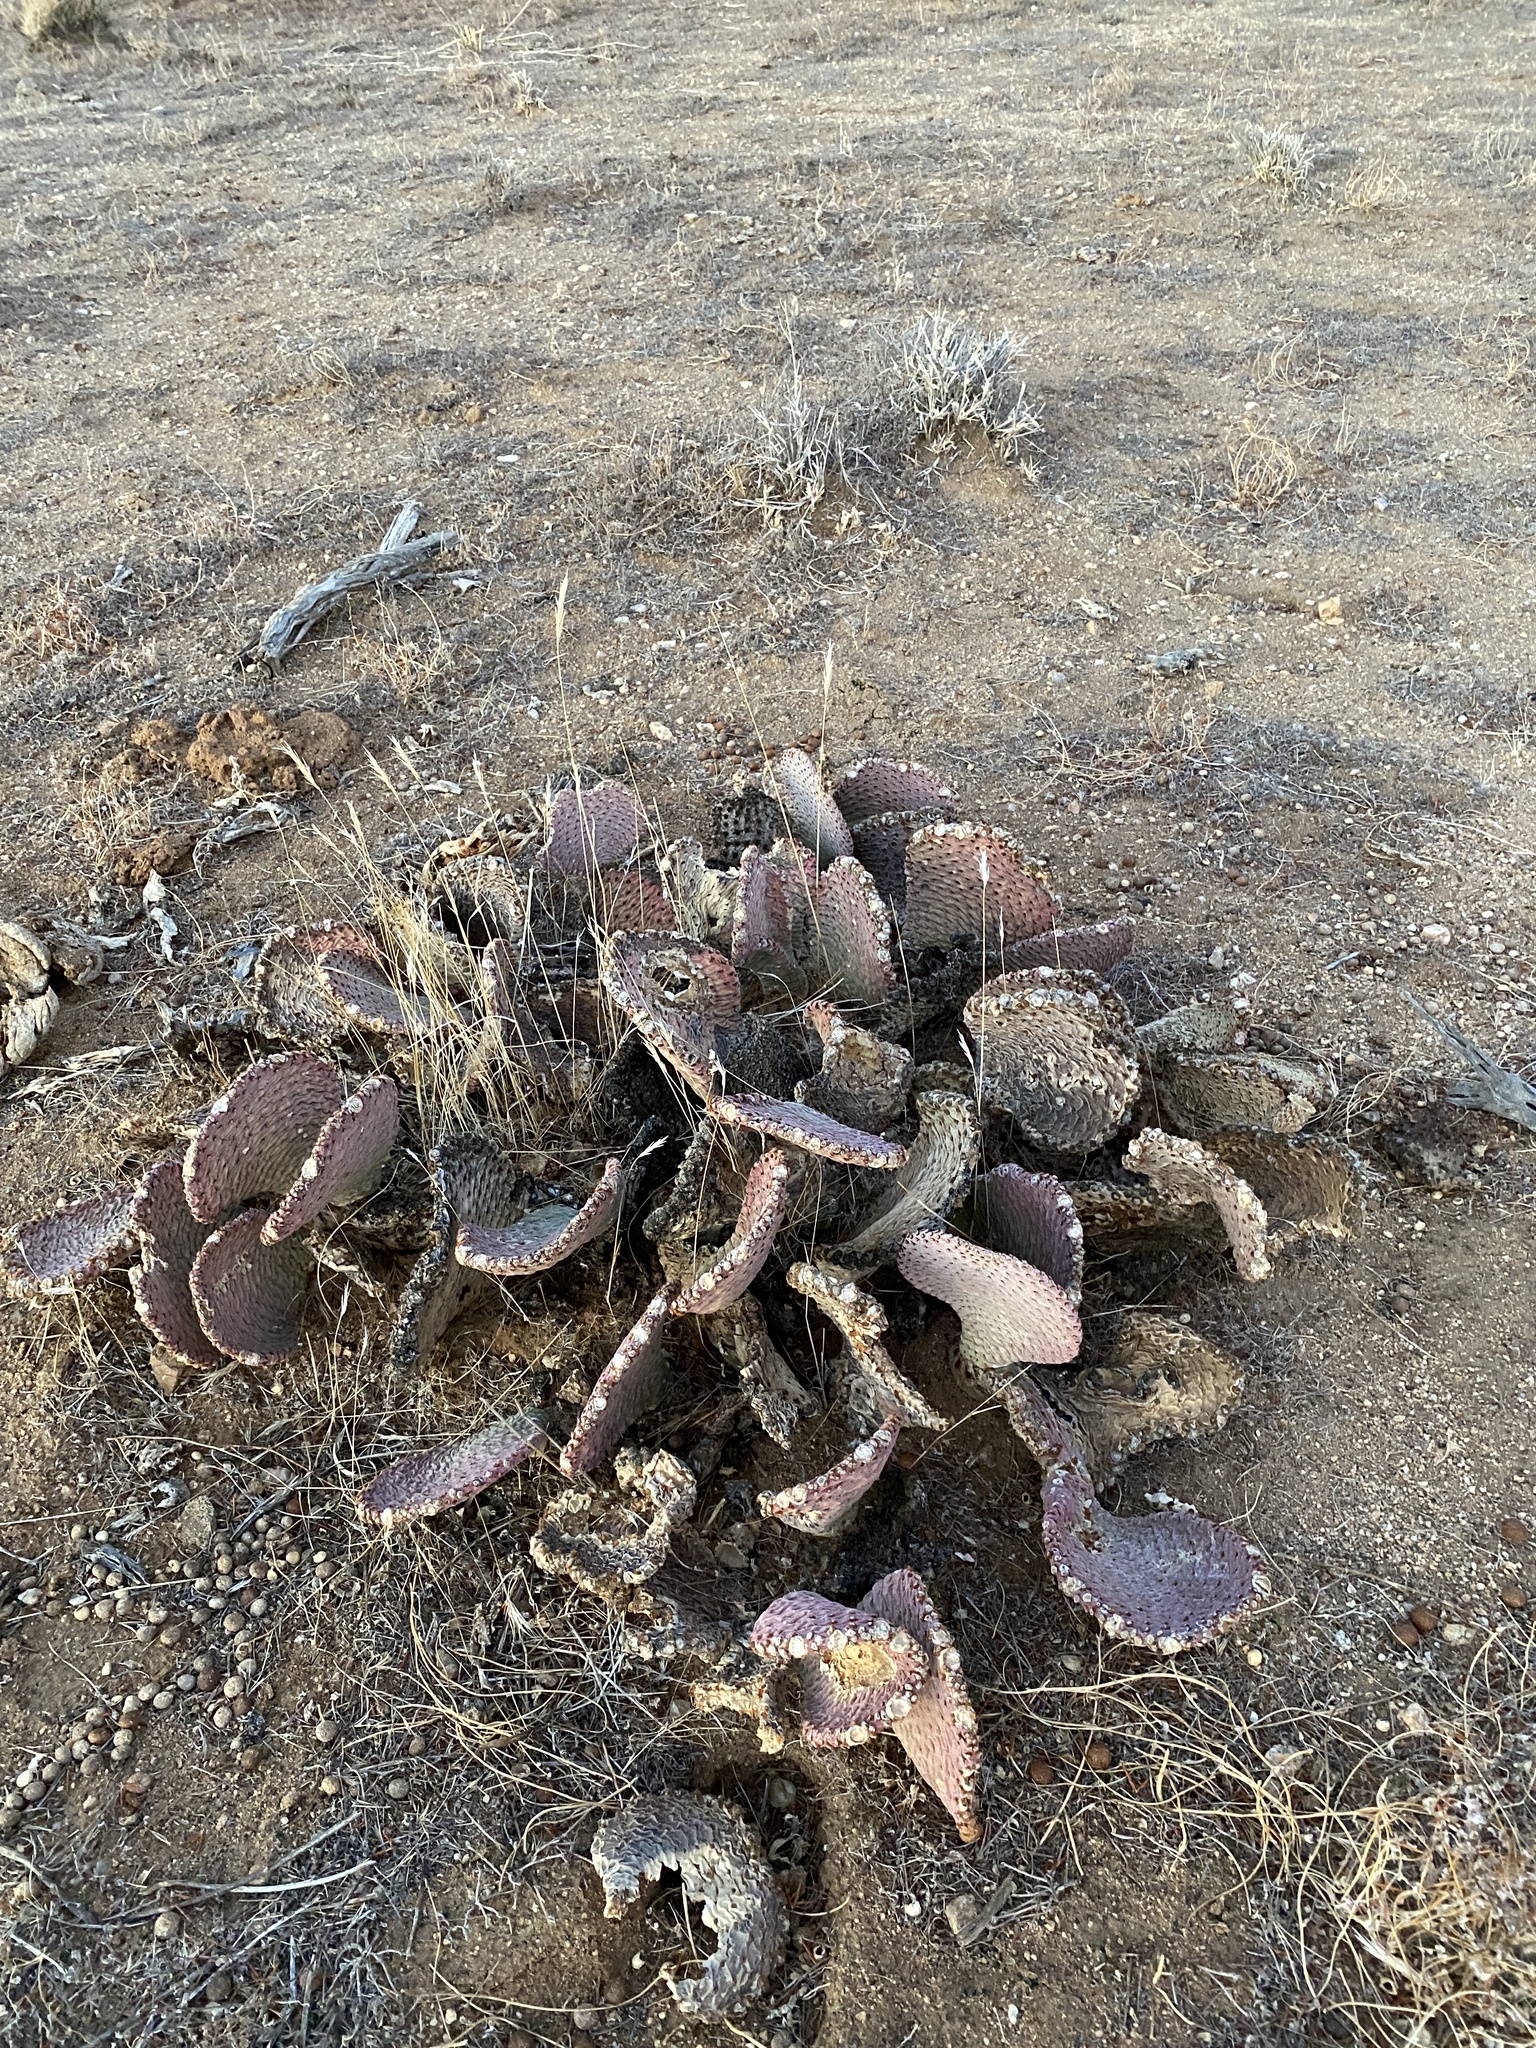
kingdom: Plantae
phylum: Tracheophyta
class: Magnoliopsida
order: Caryophyllales
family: Cactaceae
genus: Opuntia
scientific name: Opuntia basilaris
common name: Beavertail prickly-pear
